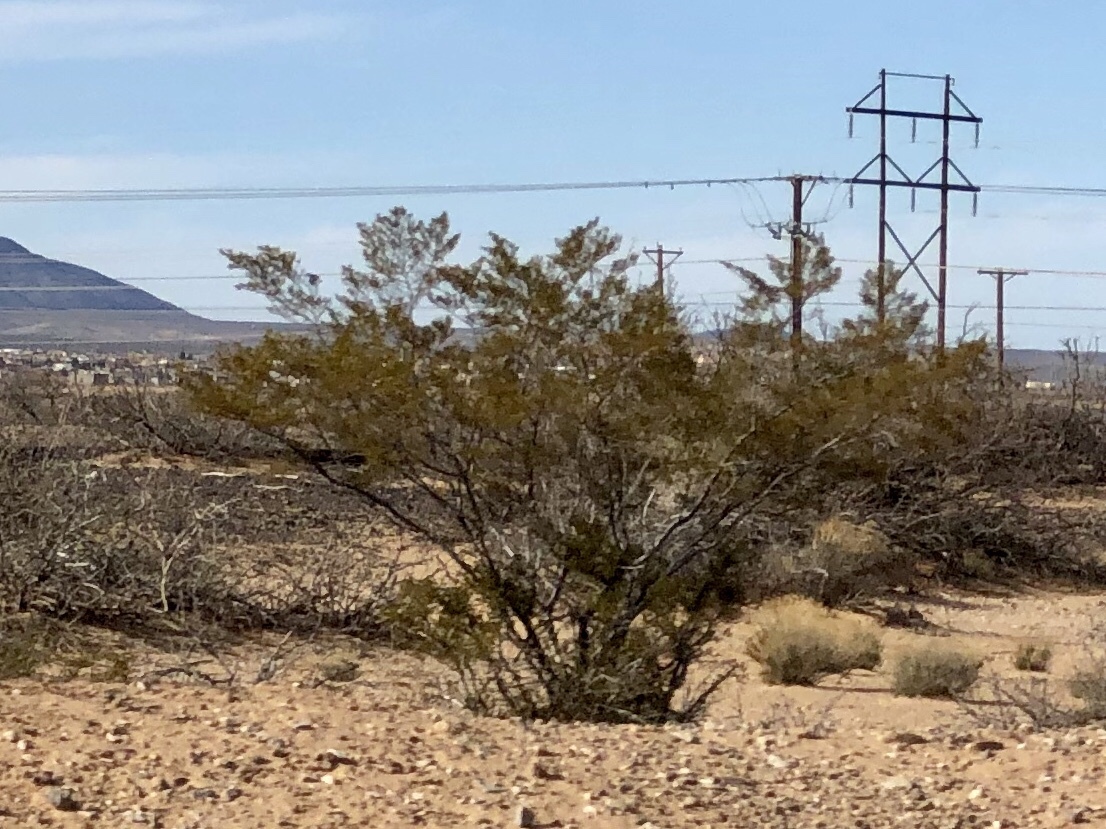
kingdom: Plantae
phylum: Tracheophyta
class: Magnoliopsida
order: Zygophyllales
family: Zygophyllaceae
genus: Larrea
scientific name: Larrea tridentata
